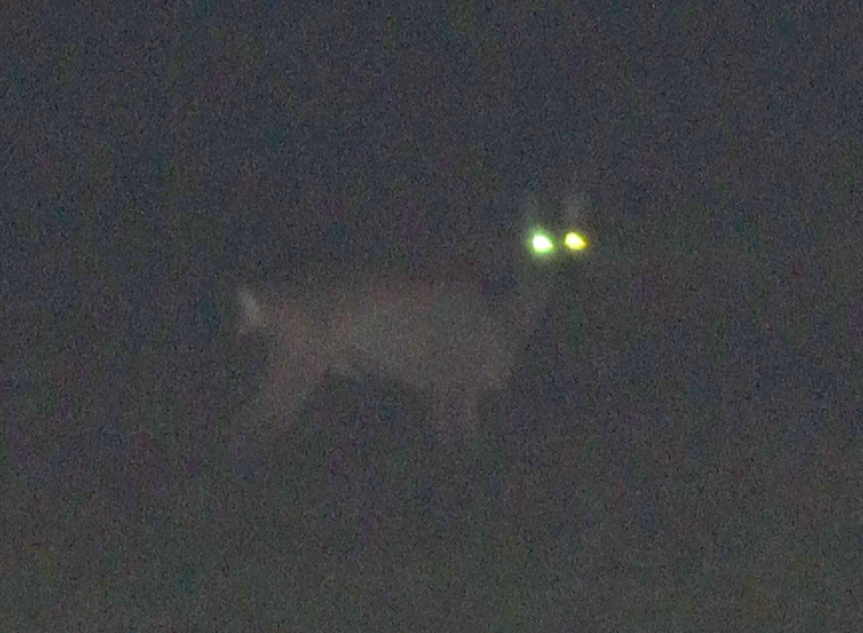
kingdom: Animalia
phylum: Chordata
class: Mammalia
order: Artiodactyla
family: Cervidae
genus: Capreolus
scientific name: Capreolus capreolus
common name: Western roe deer
